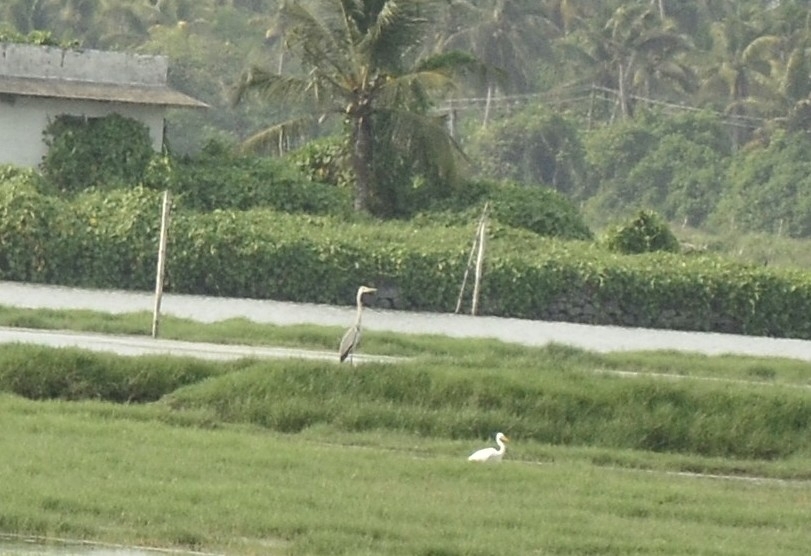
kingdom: Animalia
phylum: Chordata
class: Aves
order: Pelecaniformes
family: Ardeidae
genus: Ardea
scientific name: Ardea cinerea
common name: Grey heron
